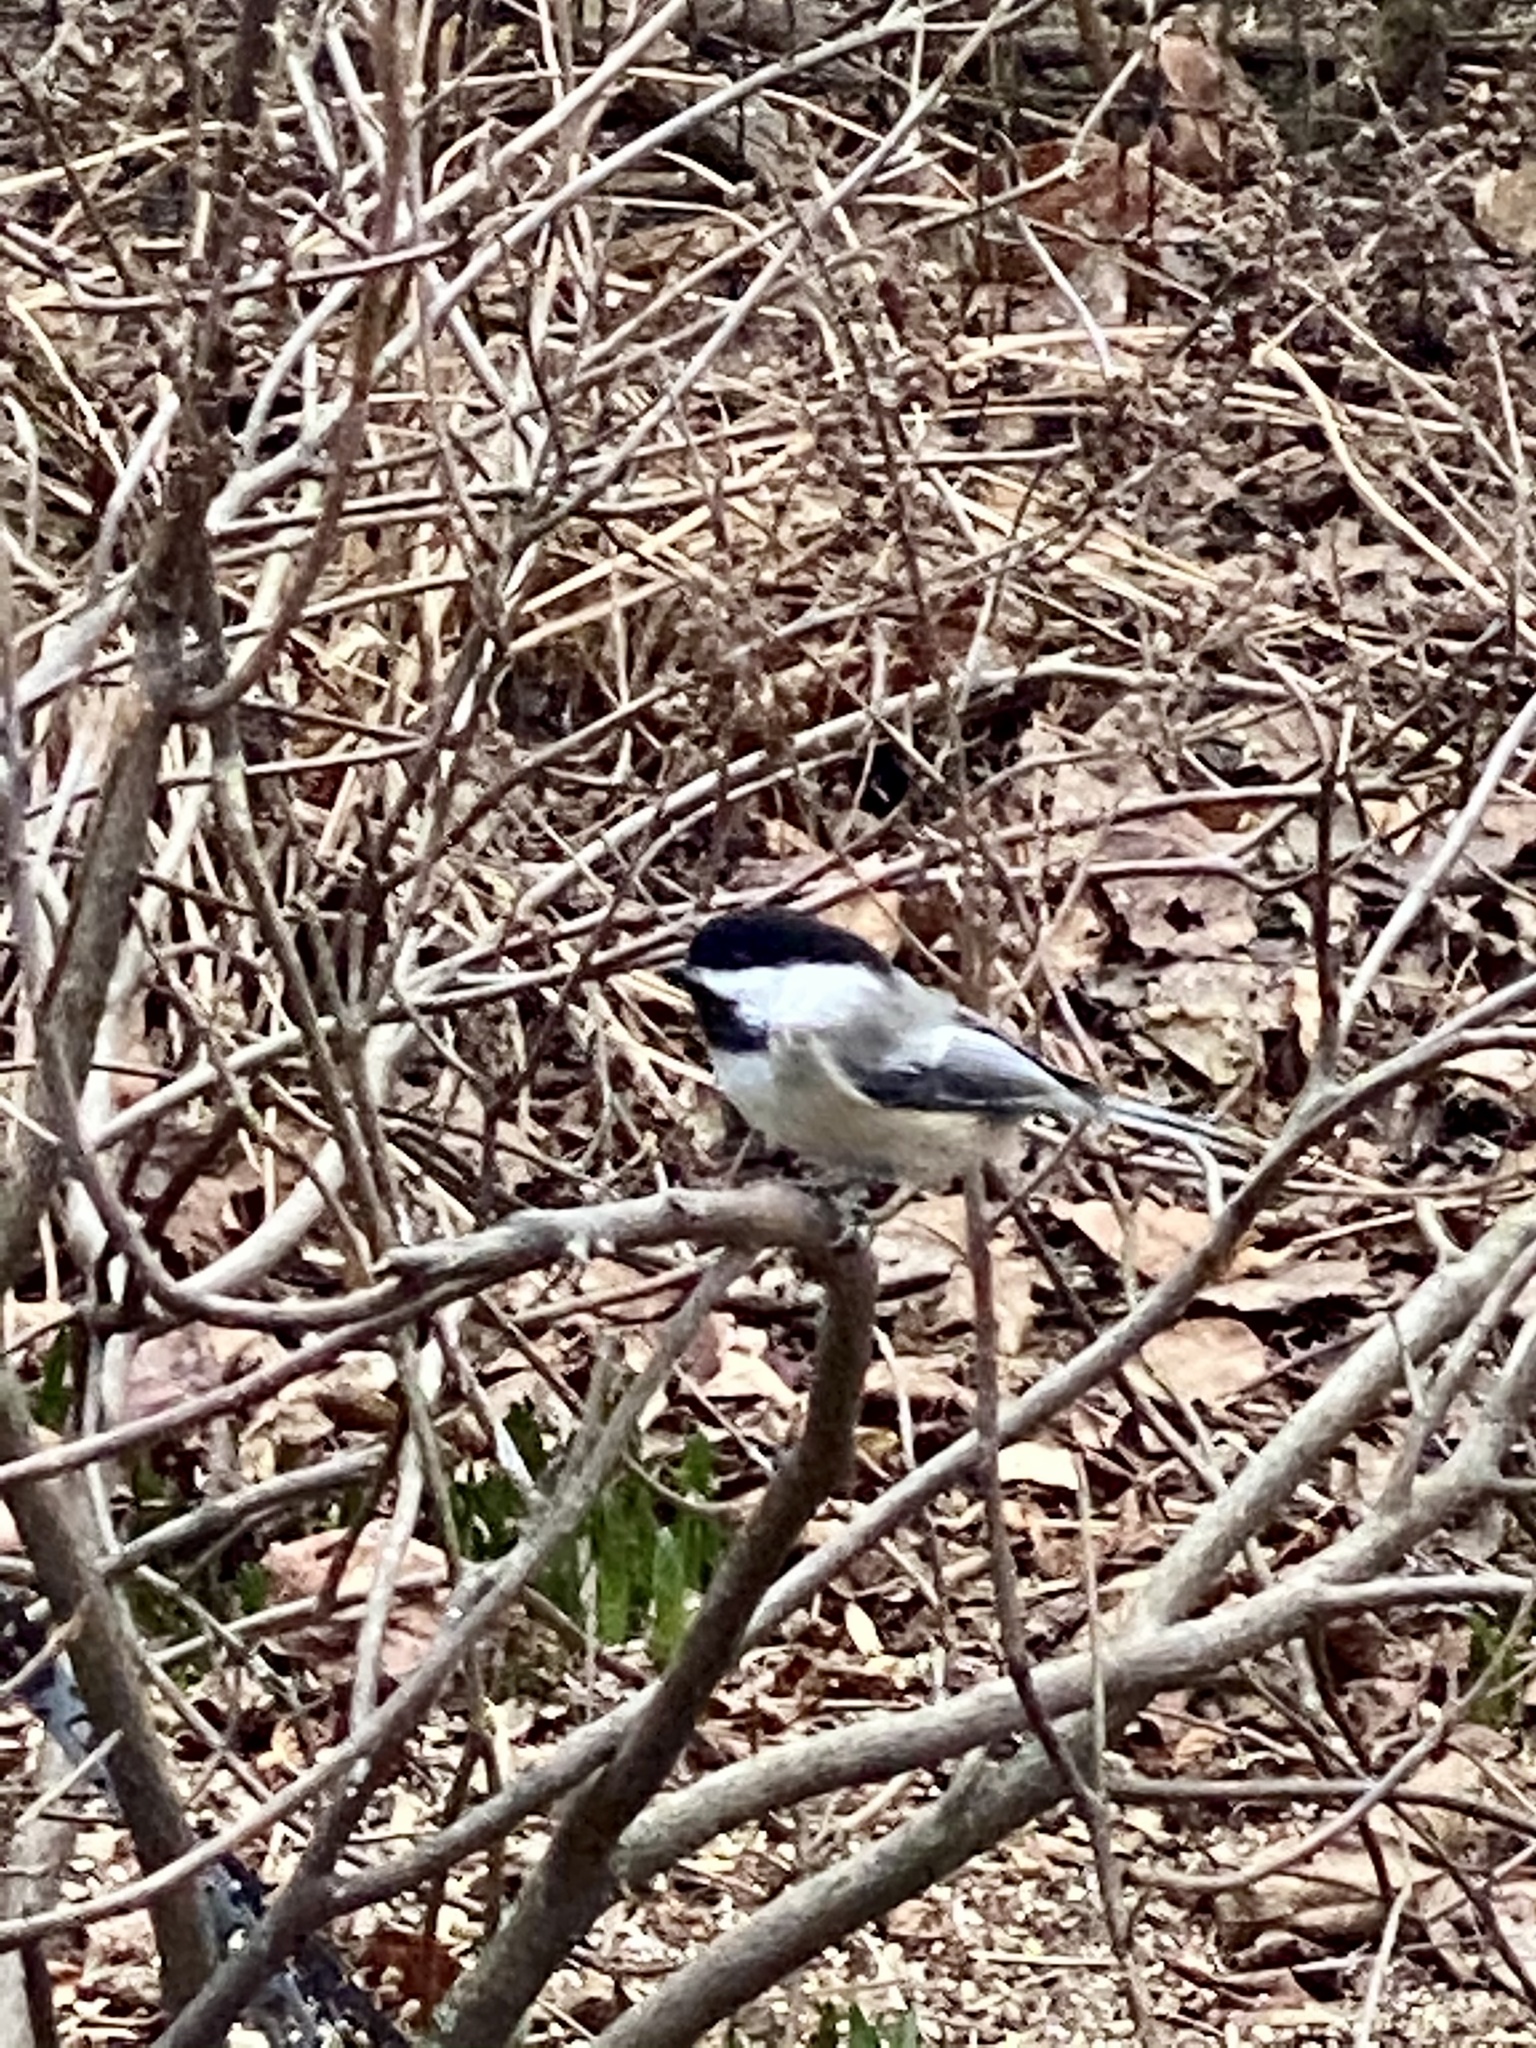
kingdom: Animalia
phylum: Chordata
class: Aves
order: Passeriformes
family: Paridae
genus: Poecile
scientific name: Poecile atricapillus
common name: Black-capped chickadee
